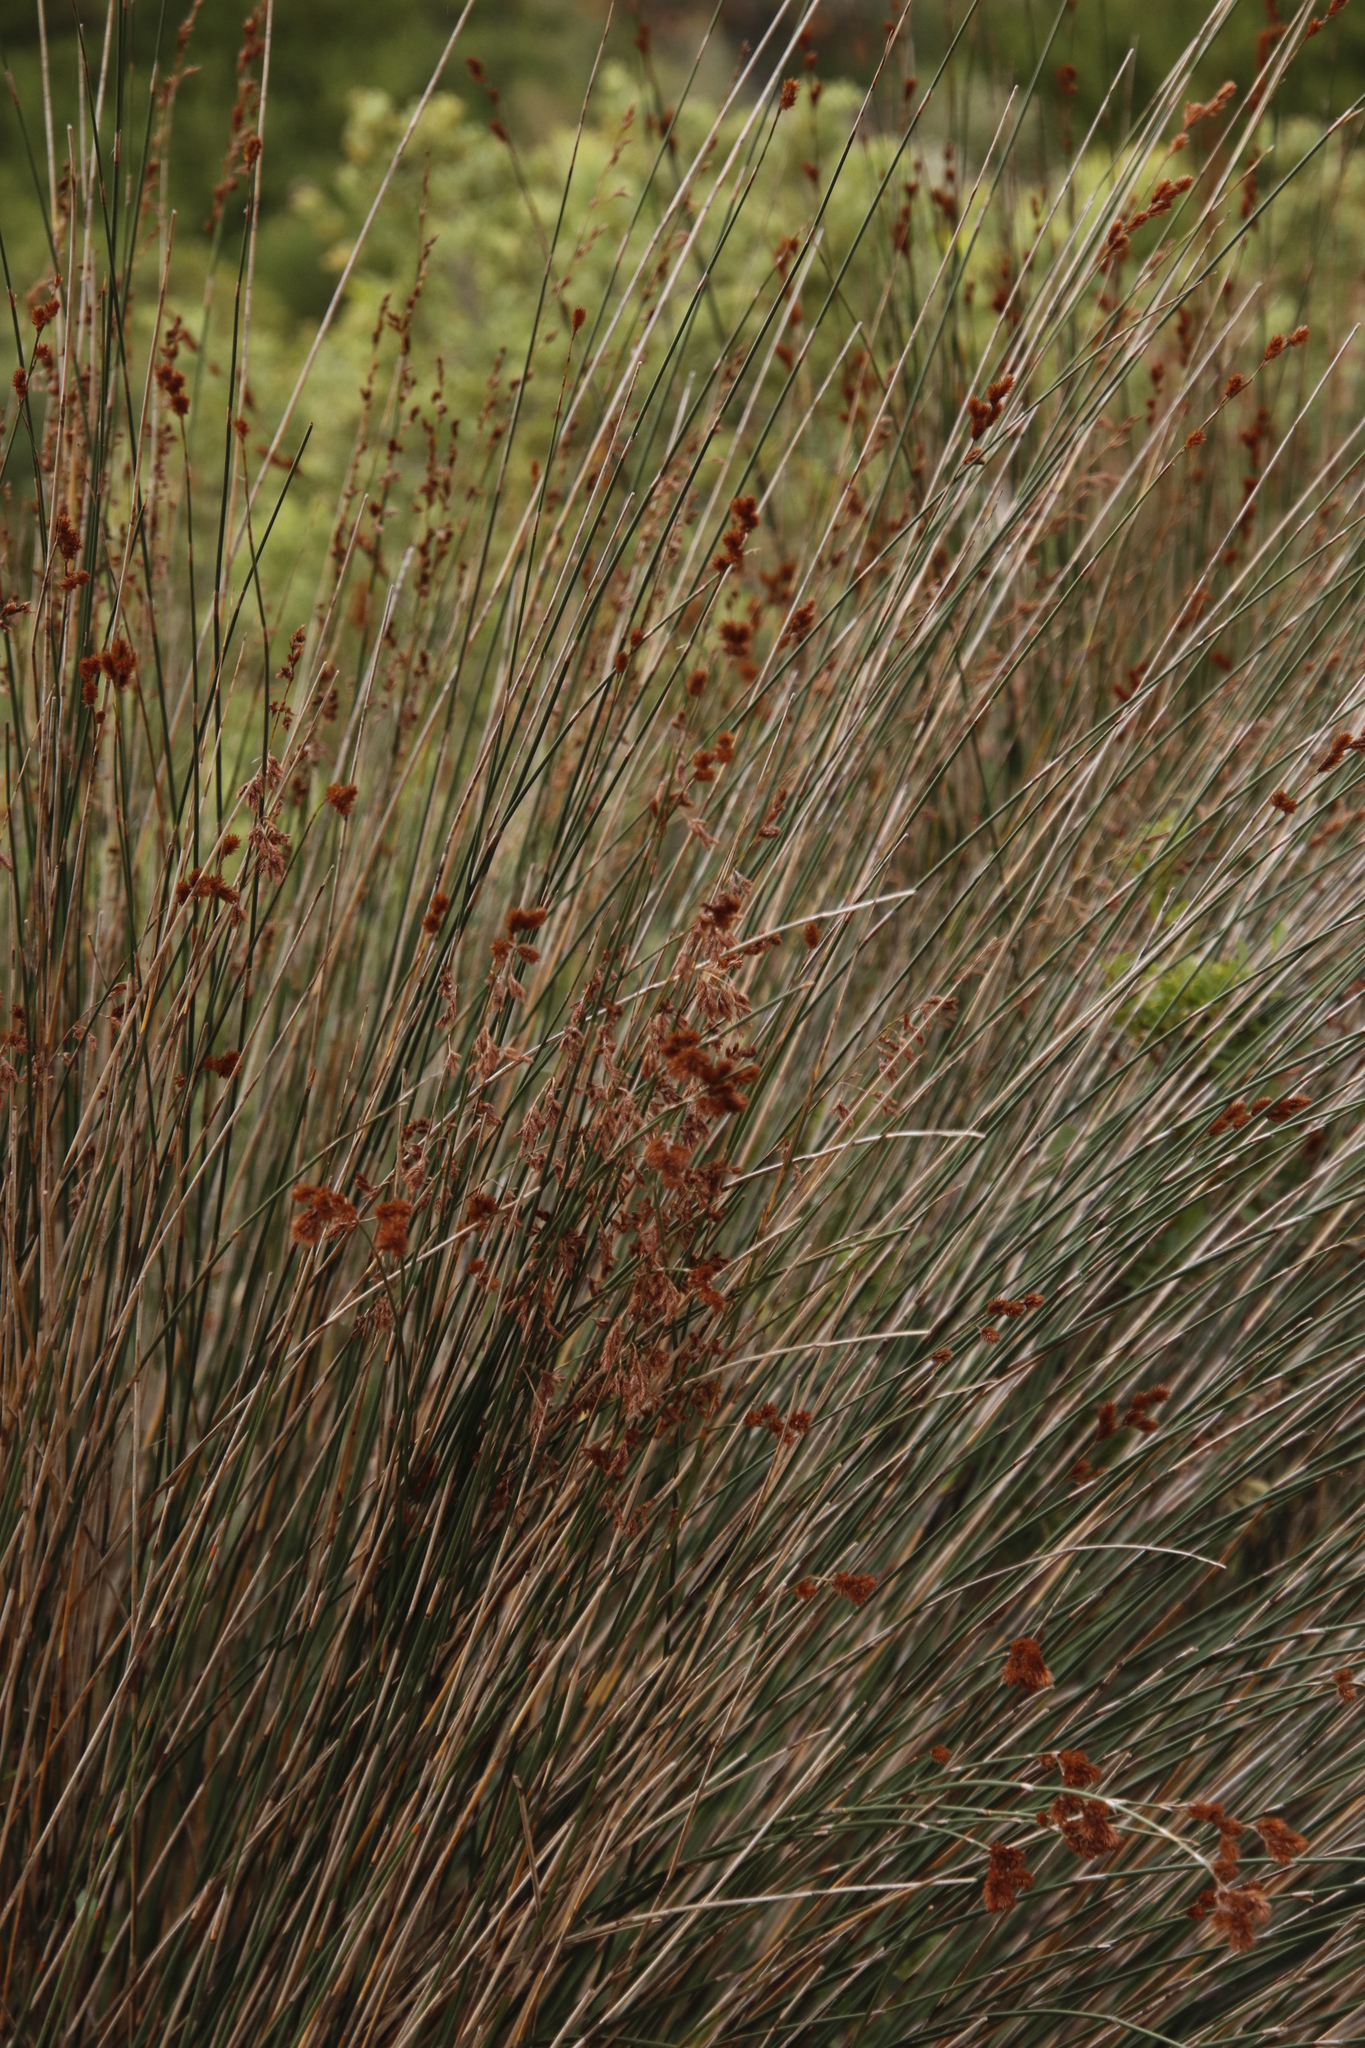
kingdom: Plantae
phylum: Tracheophyta
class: Liliopsida
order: Poales
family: Restionaceae
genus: Thamnochortus
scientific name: Thamnochortus insignis
